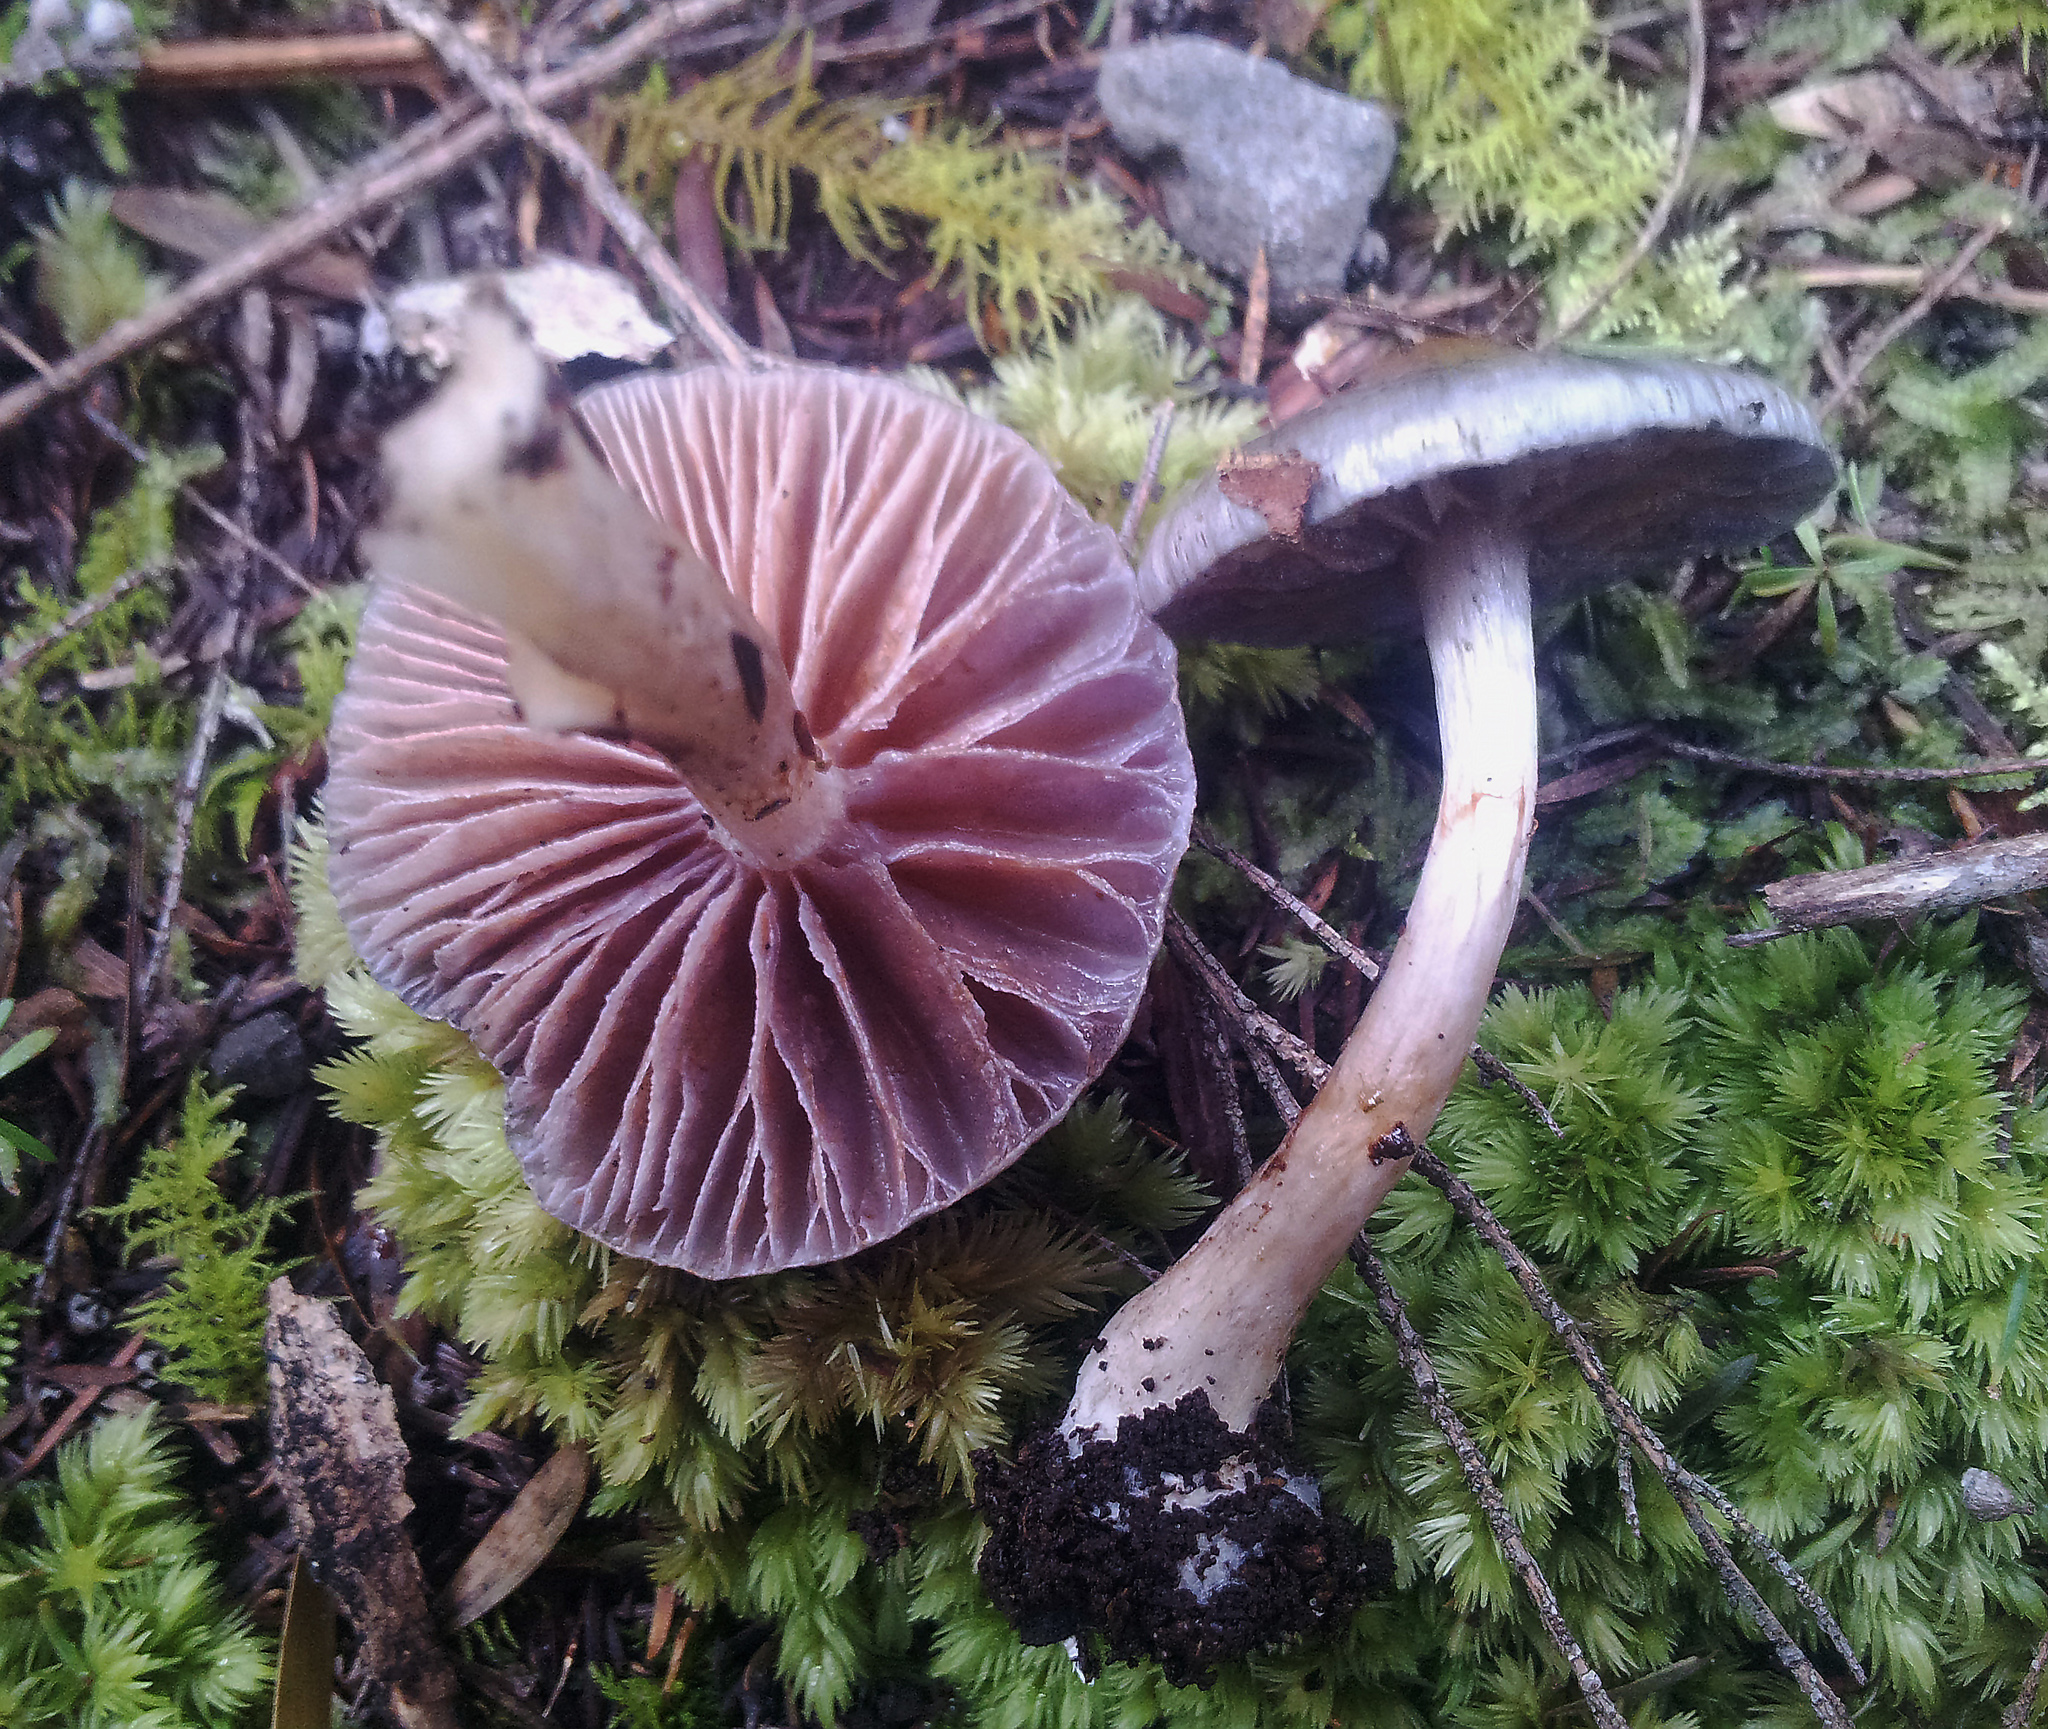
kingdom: Fungi
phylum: Basidiomycota
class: Agaricomycetes
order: Agaricales
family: Cortinariaceae
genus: Cortinarius
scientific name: Cortinarius rotundisporus
